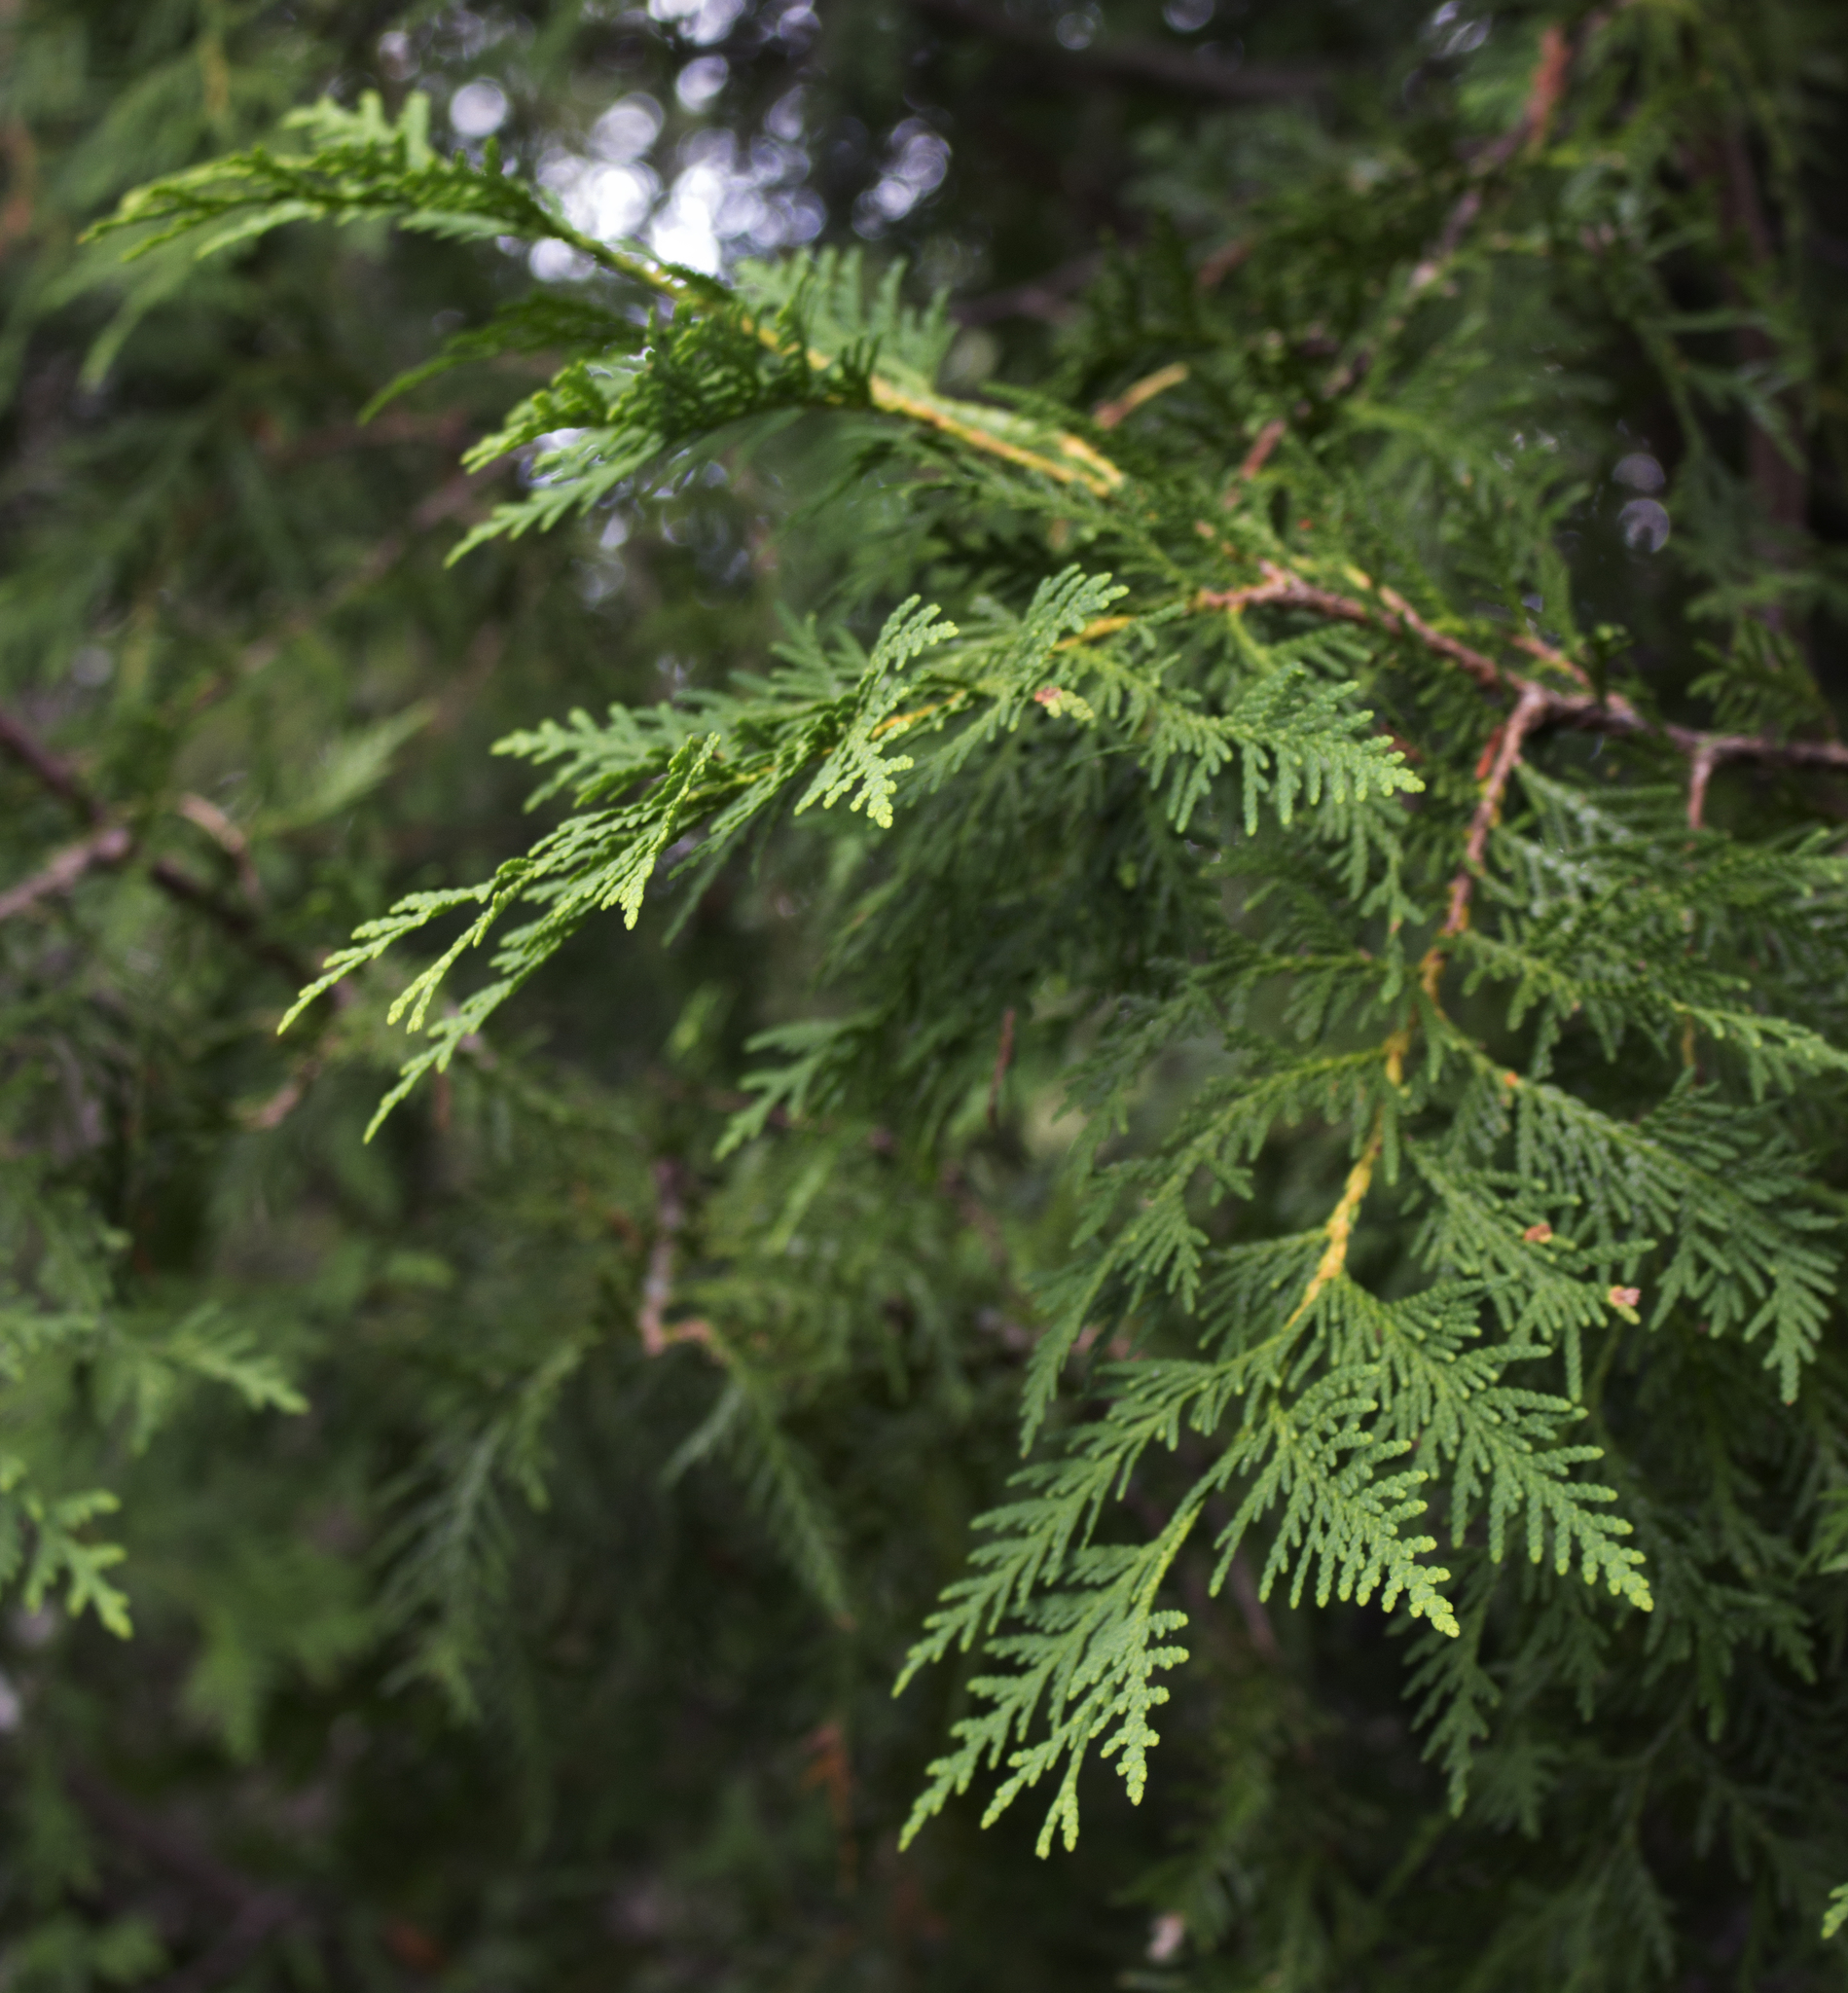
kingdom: Plantae
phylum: Tracheophyta
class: Pinopsida
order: Pinales
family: Cupressaceae
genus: Thuja
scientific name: Thuja occidentalis
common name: Northern white-cedar
